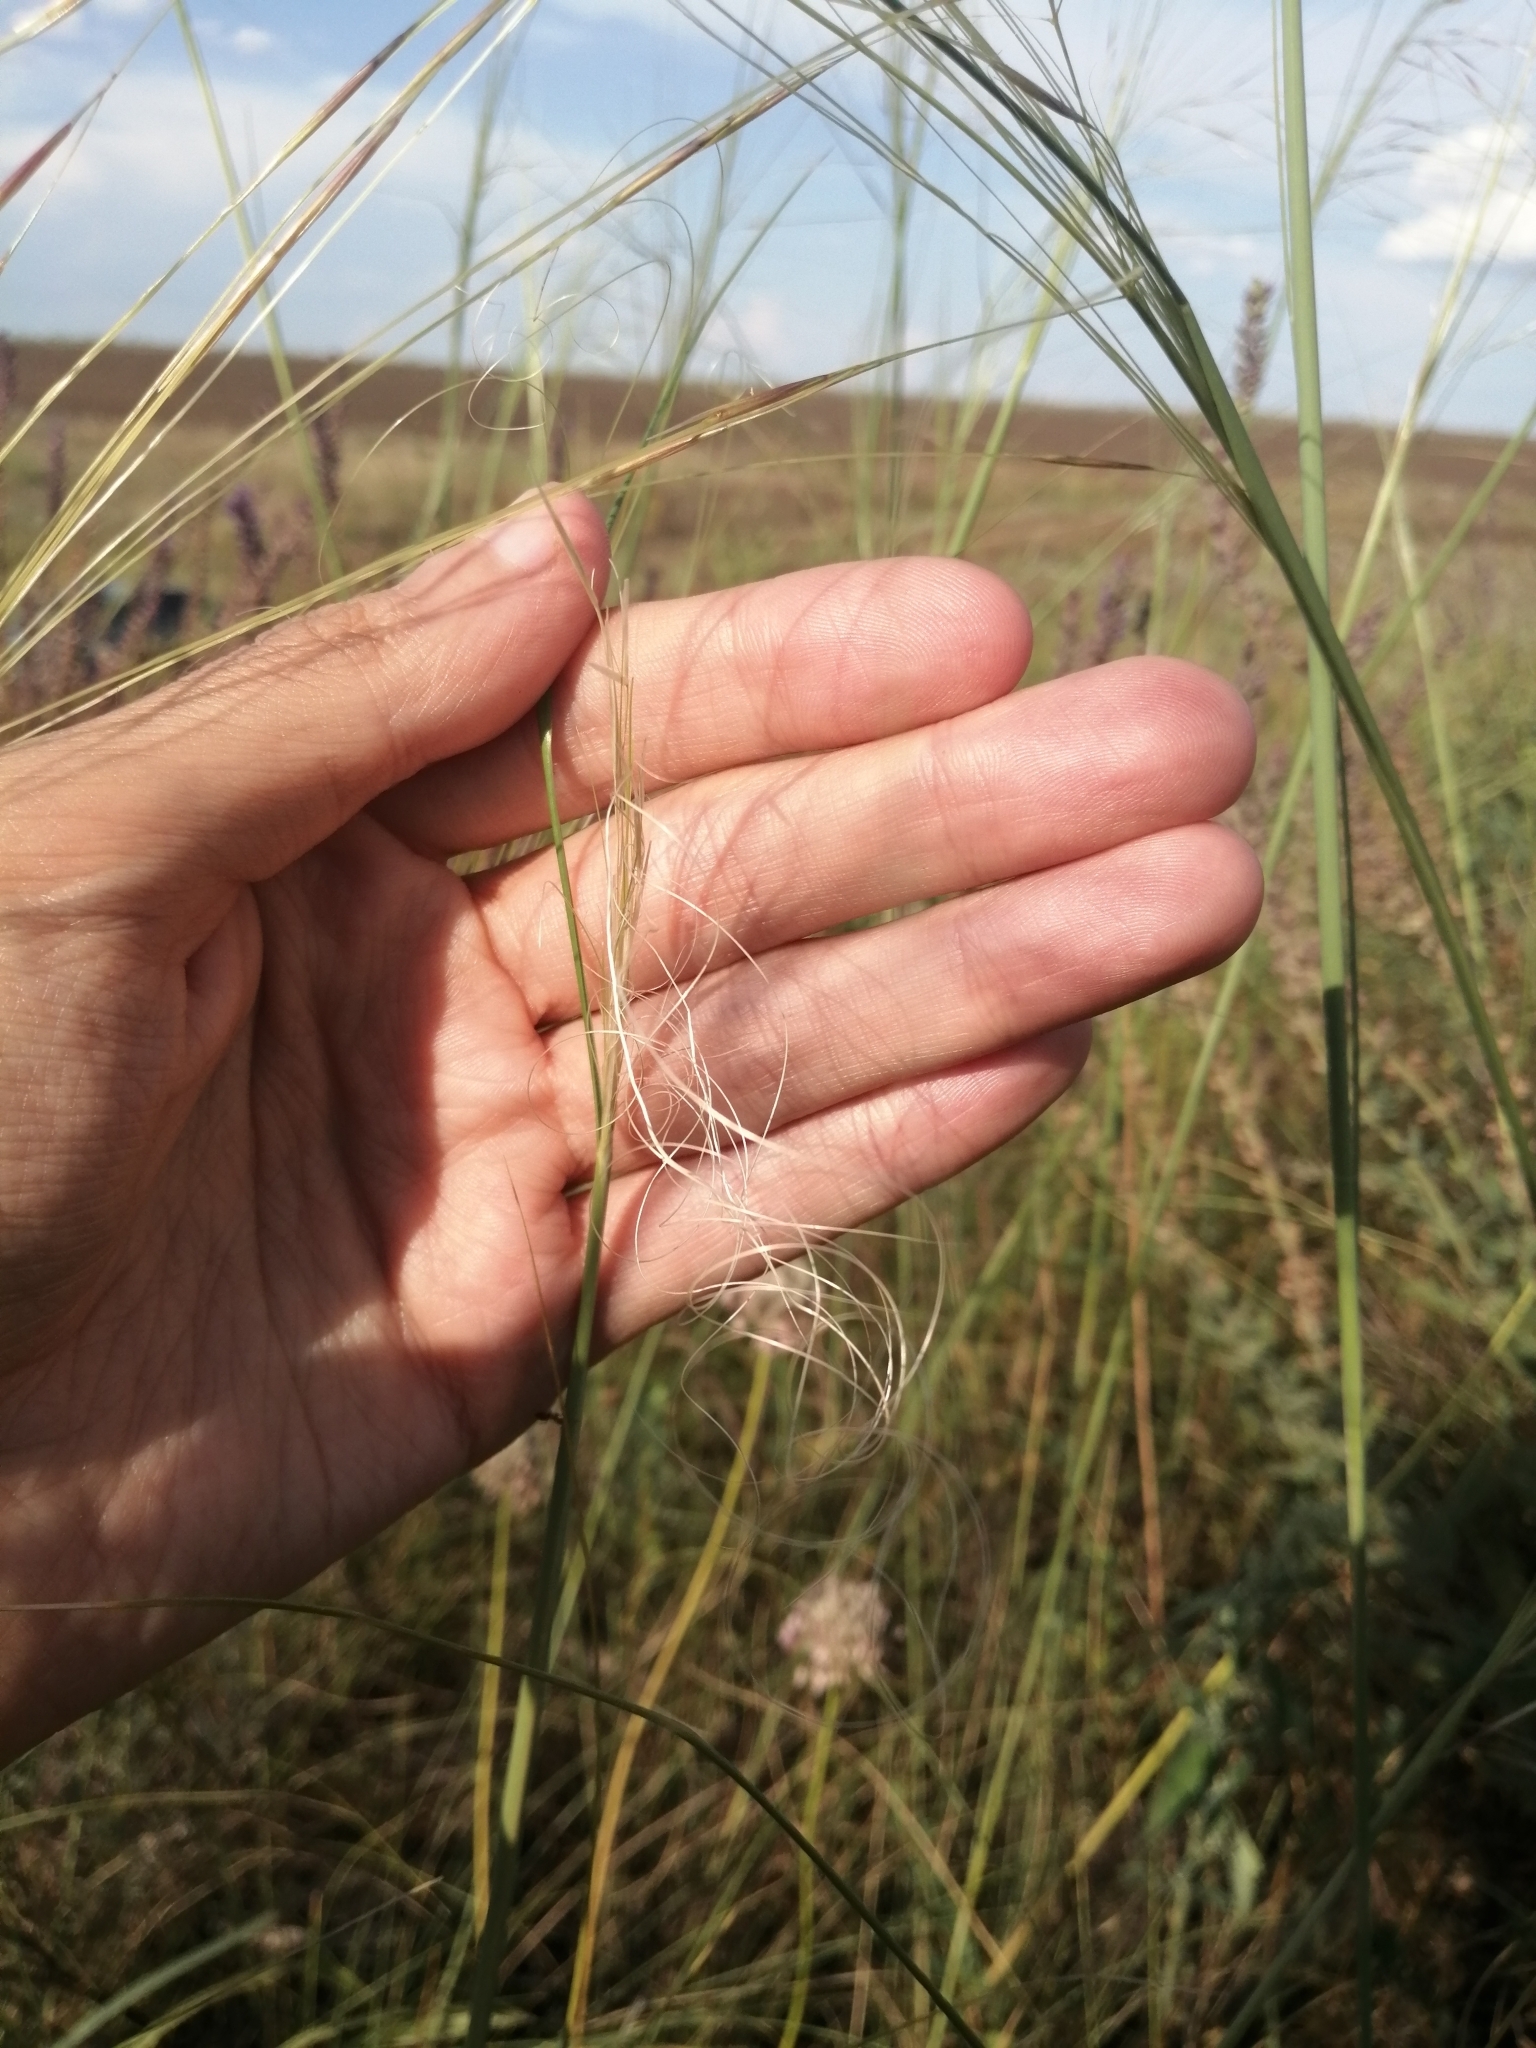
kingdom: Plantae
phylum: Tracheophyta
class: Liliopsida
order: Poales
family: Poaceae
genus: Stipa
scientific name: Stipa capillata
